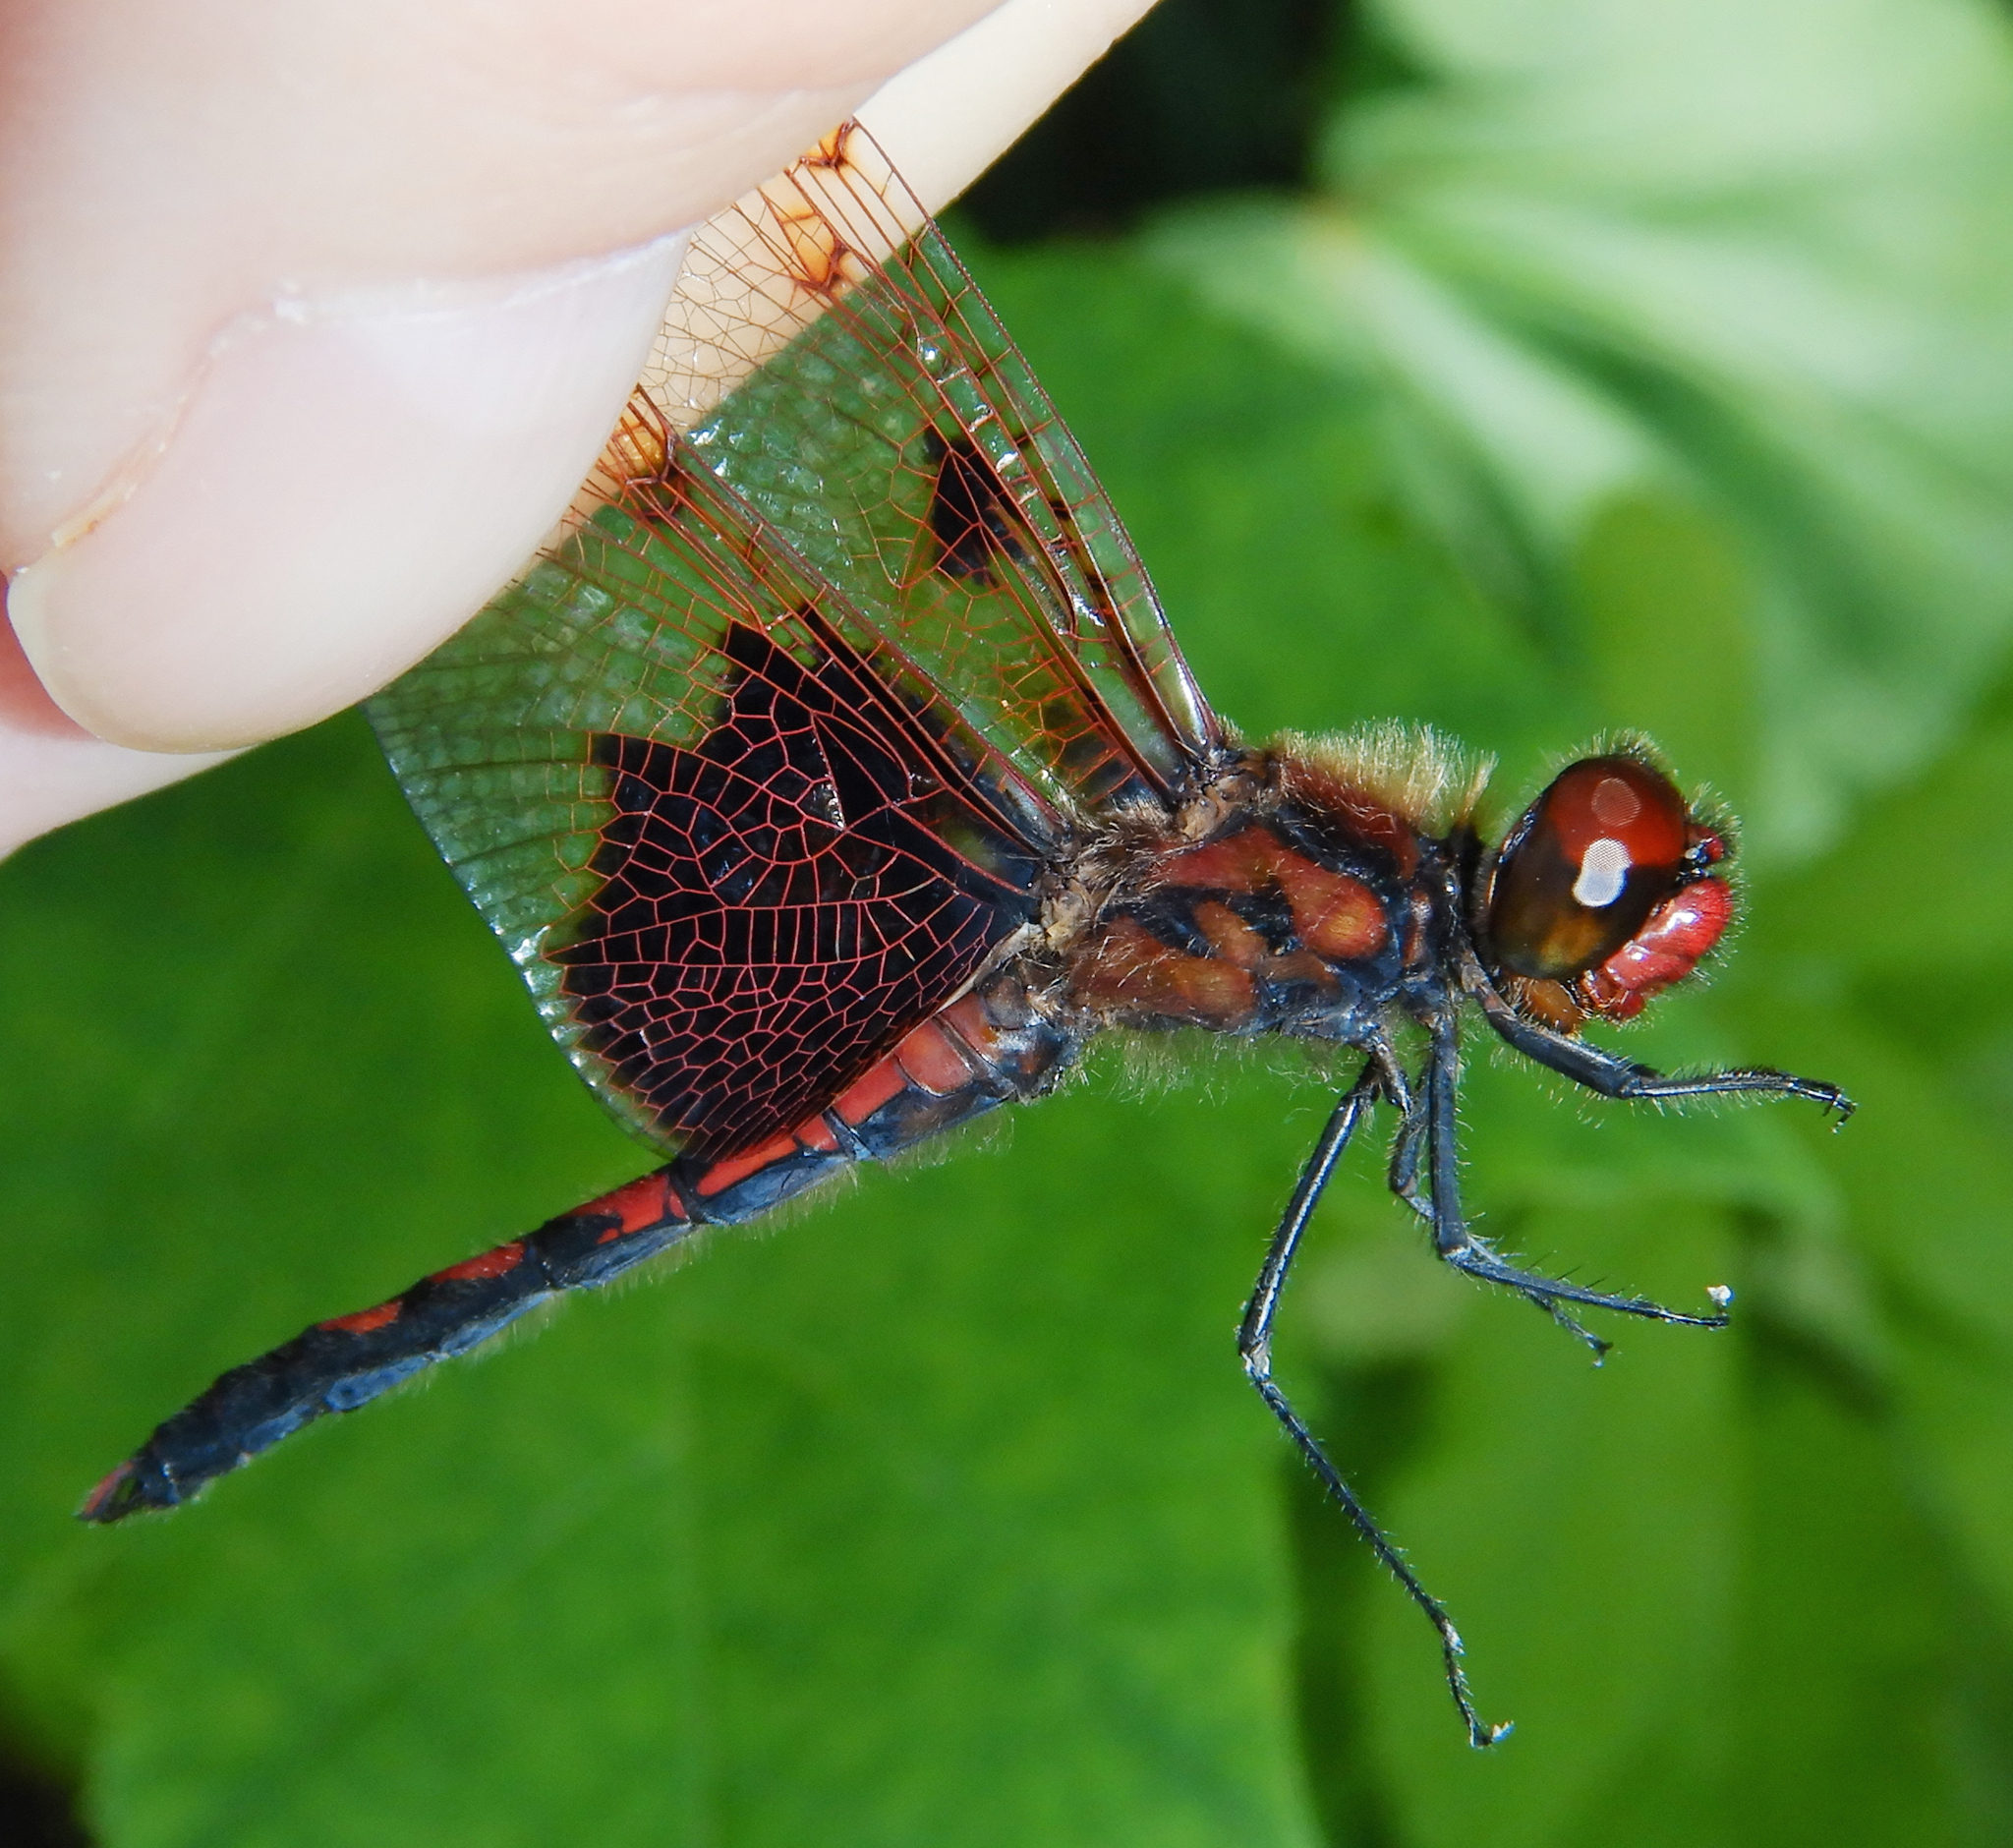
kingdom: Animalia
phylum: Arthropoda
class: Insecta
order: Odonata
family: Libellulidae
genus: Celithemis
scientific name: Celithemis elisa
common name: Calico pennant
